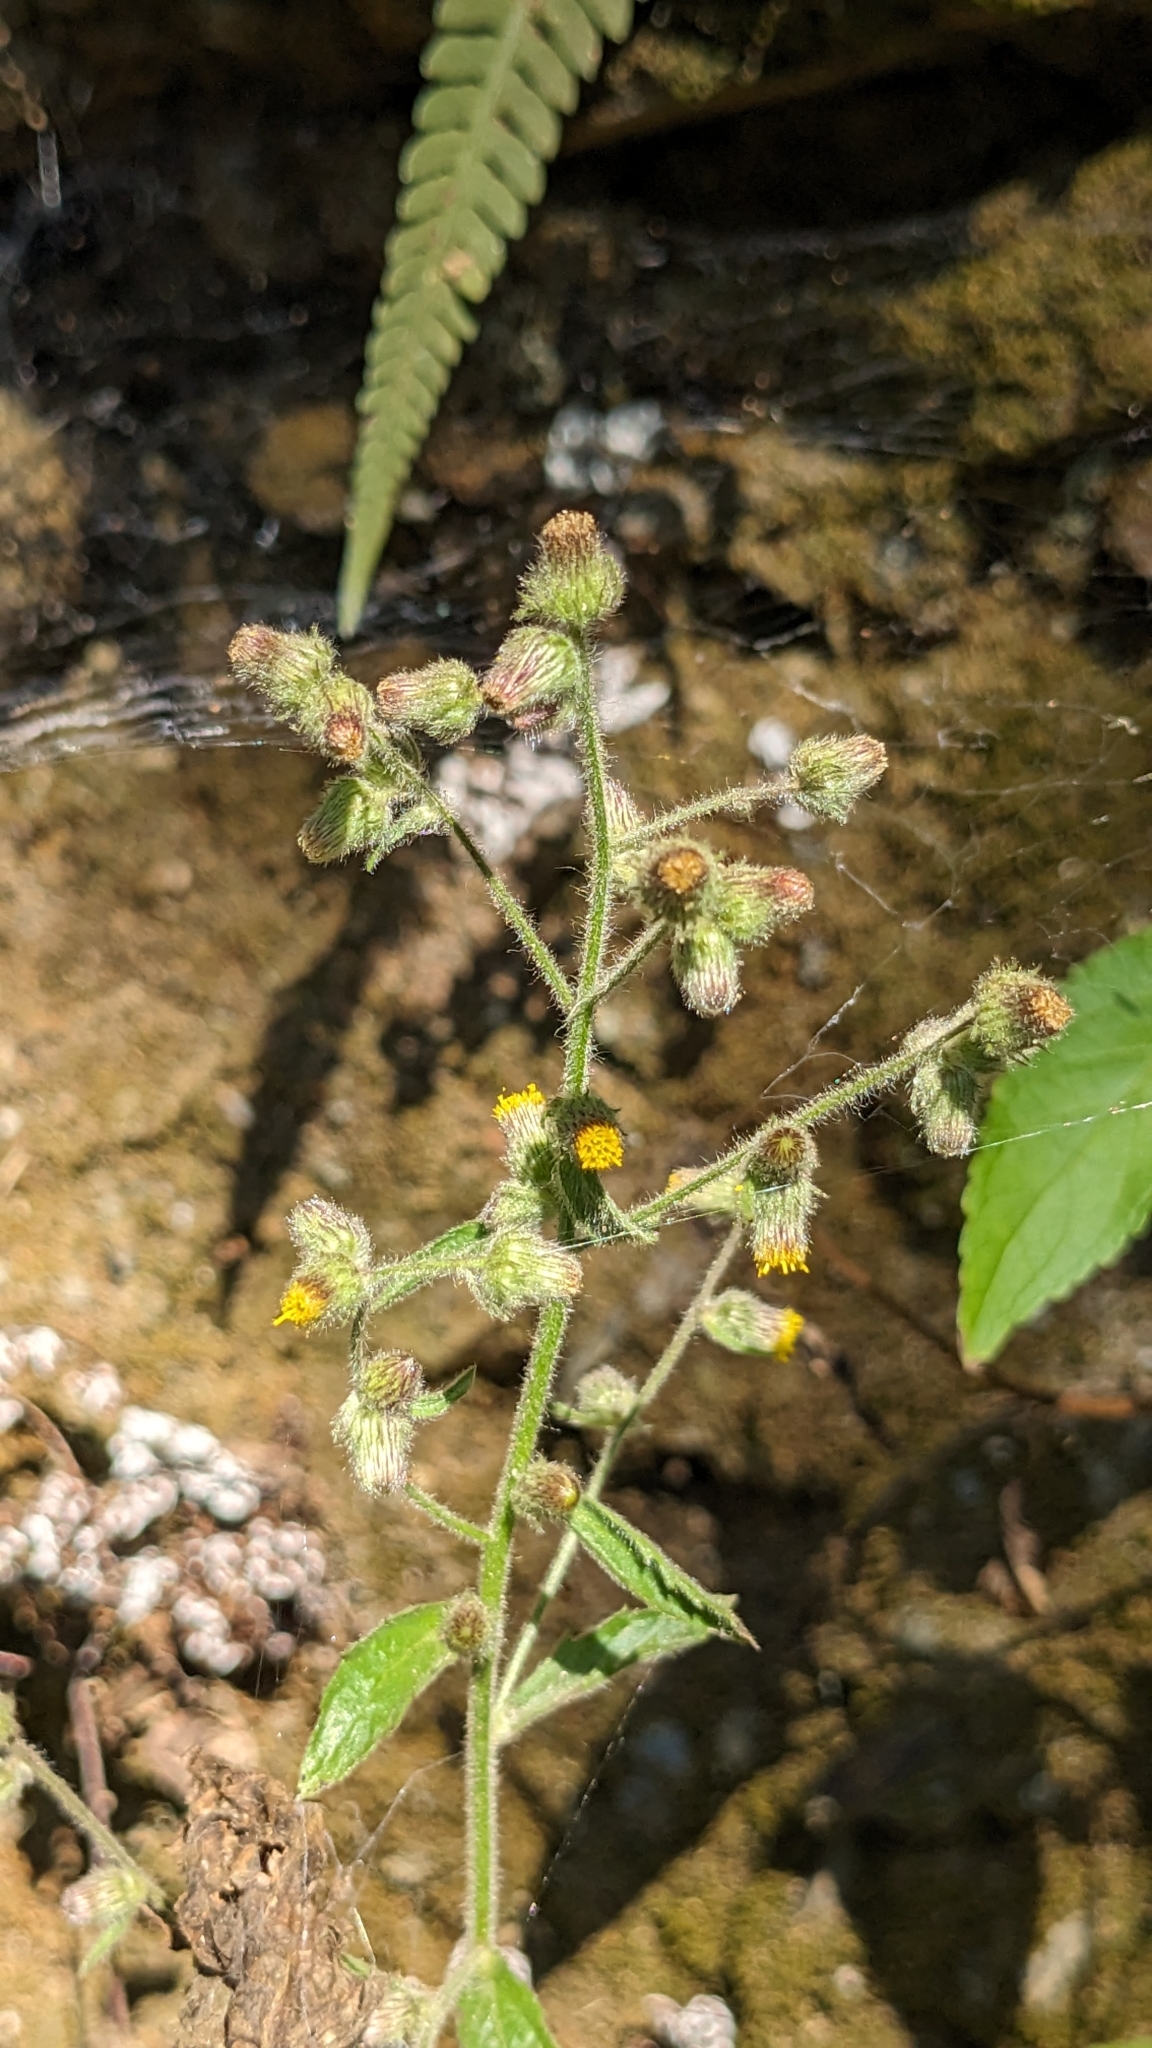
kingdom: Plantae
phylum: Tracheophyta
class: Magnoliopsida
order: Asterales
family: Asteraceae
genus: Blumea
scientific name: Blumea sinuata
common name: Cutleaf false oxtongue
